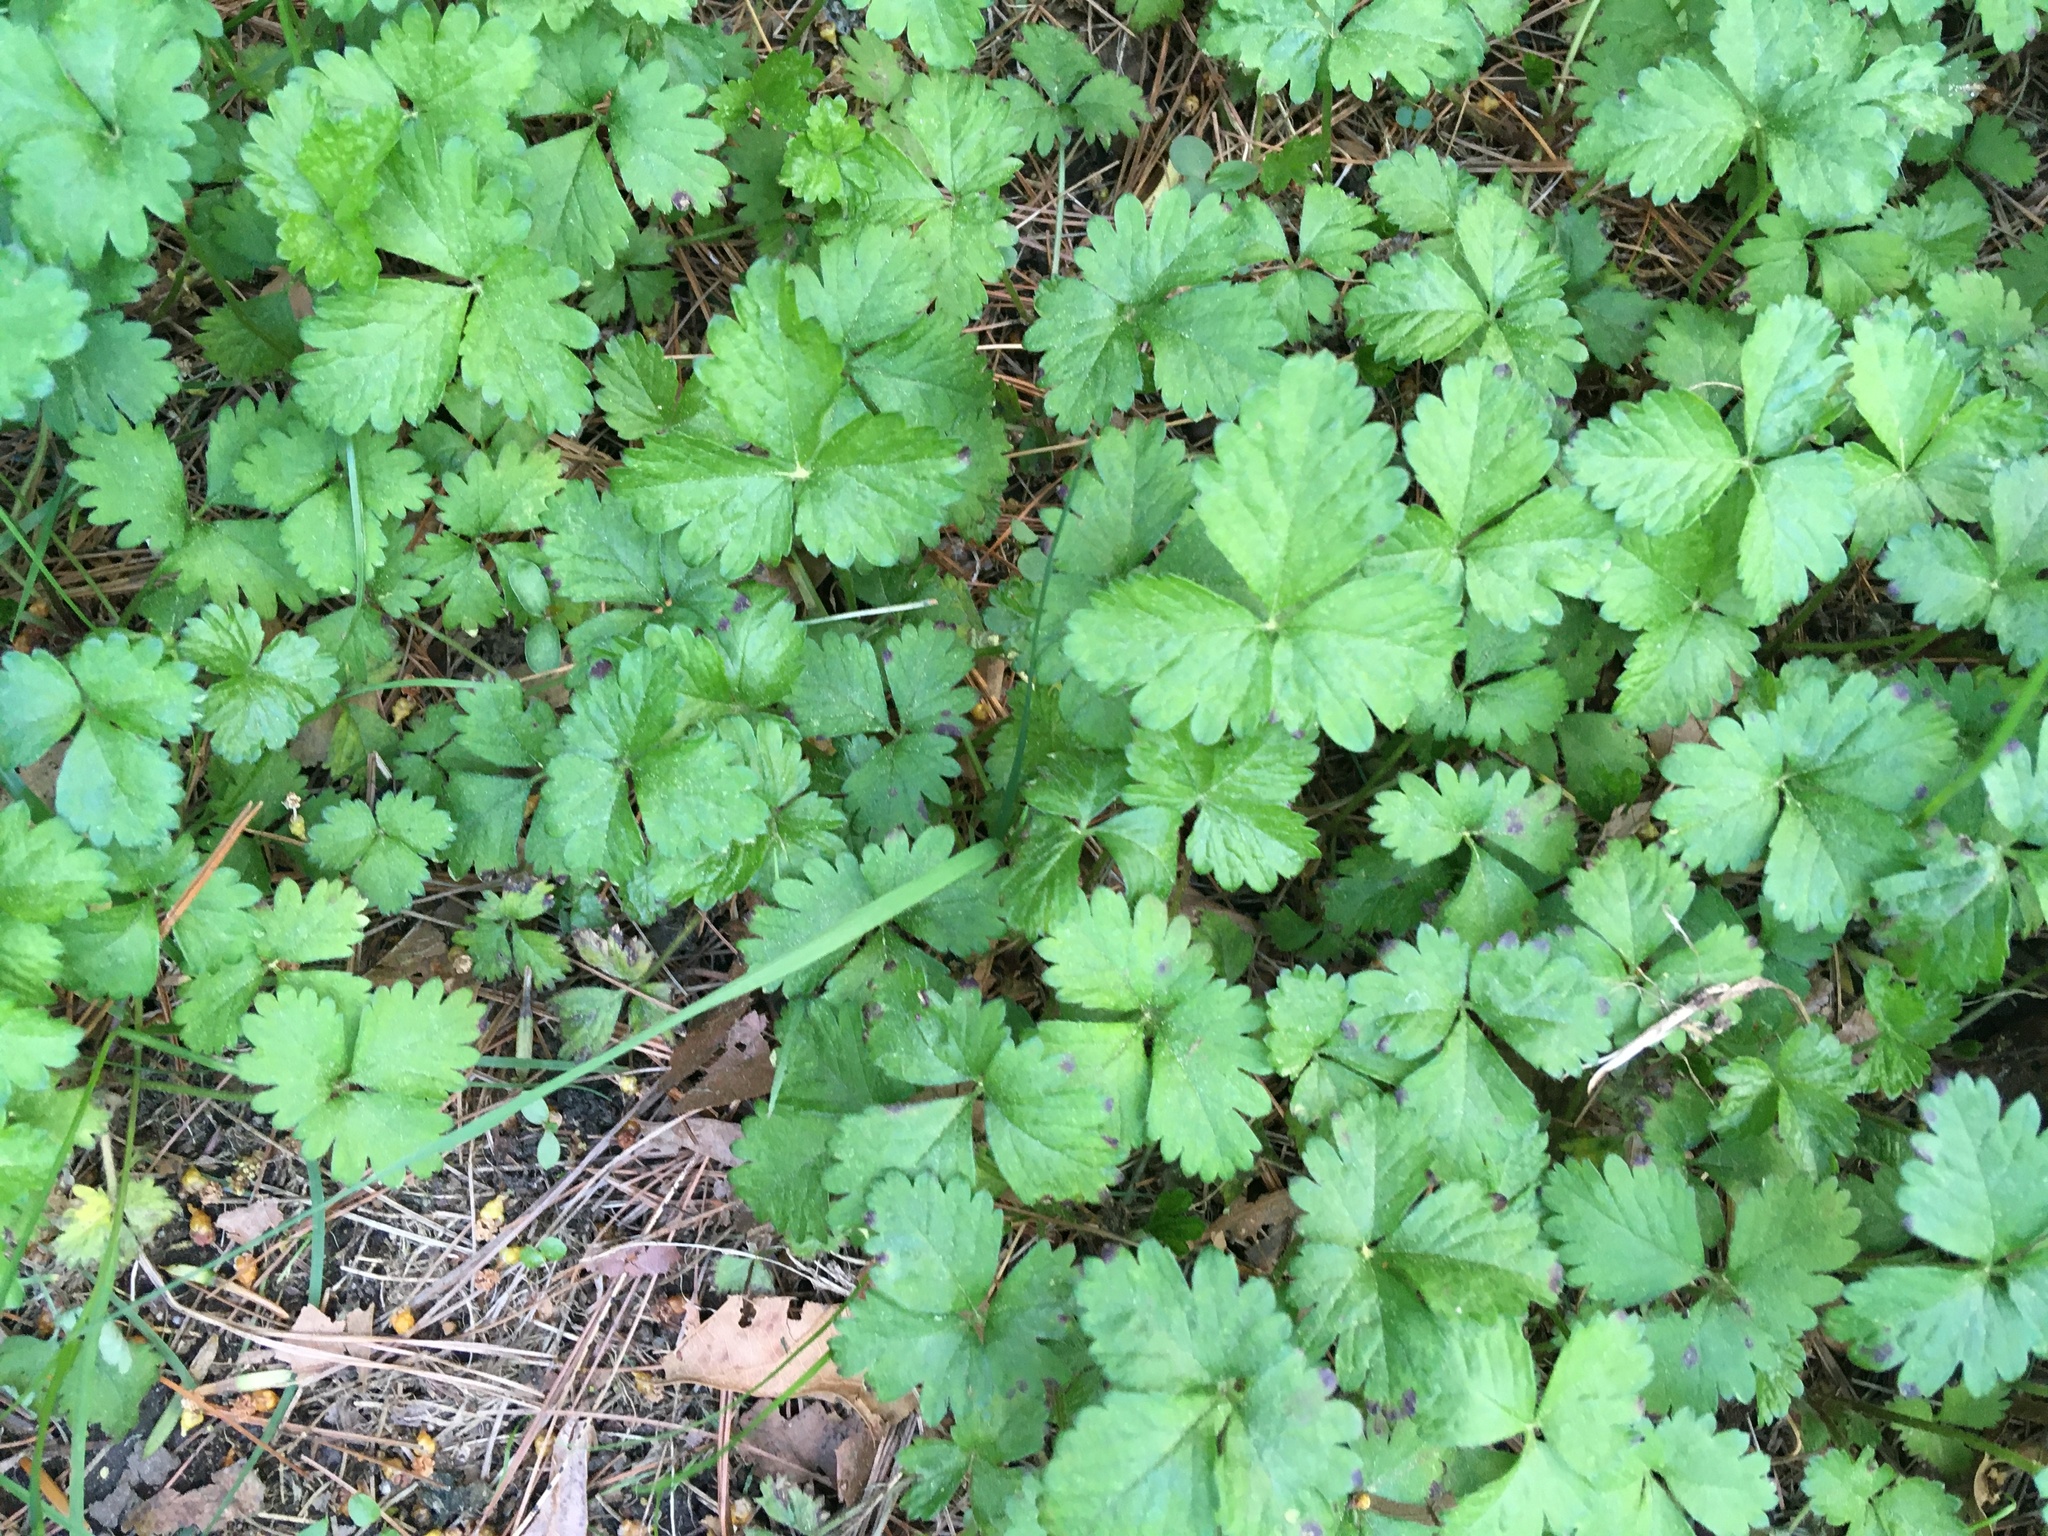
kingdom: Plantae
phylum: Tracheophyta
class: Magnoliopsida
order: Rosales
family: Rosaceae
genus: Potentilla
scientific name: Potentilla indica
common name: Yellow-flowered strawberry
